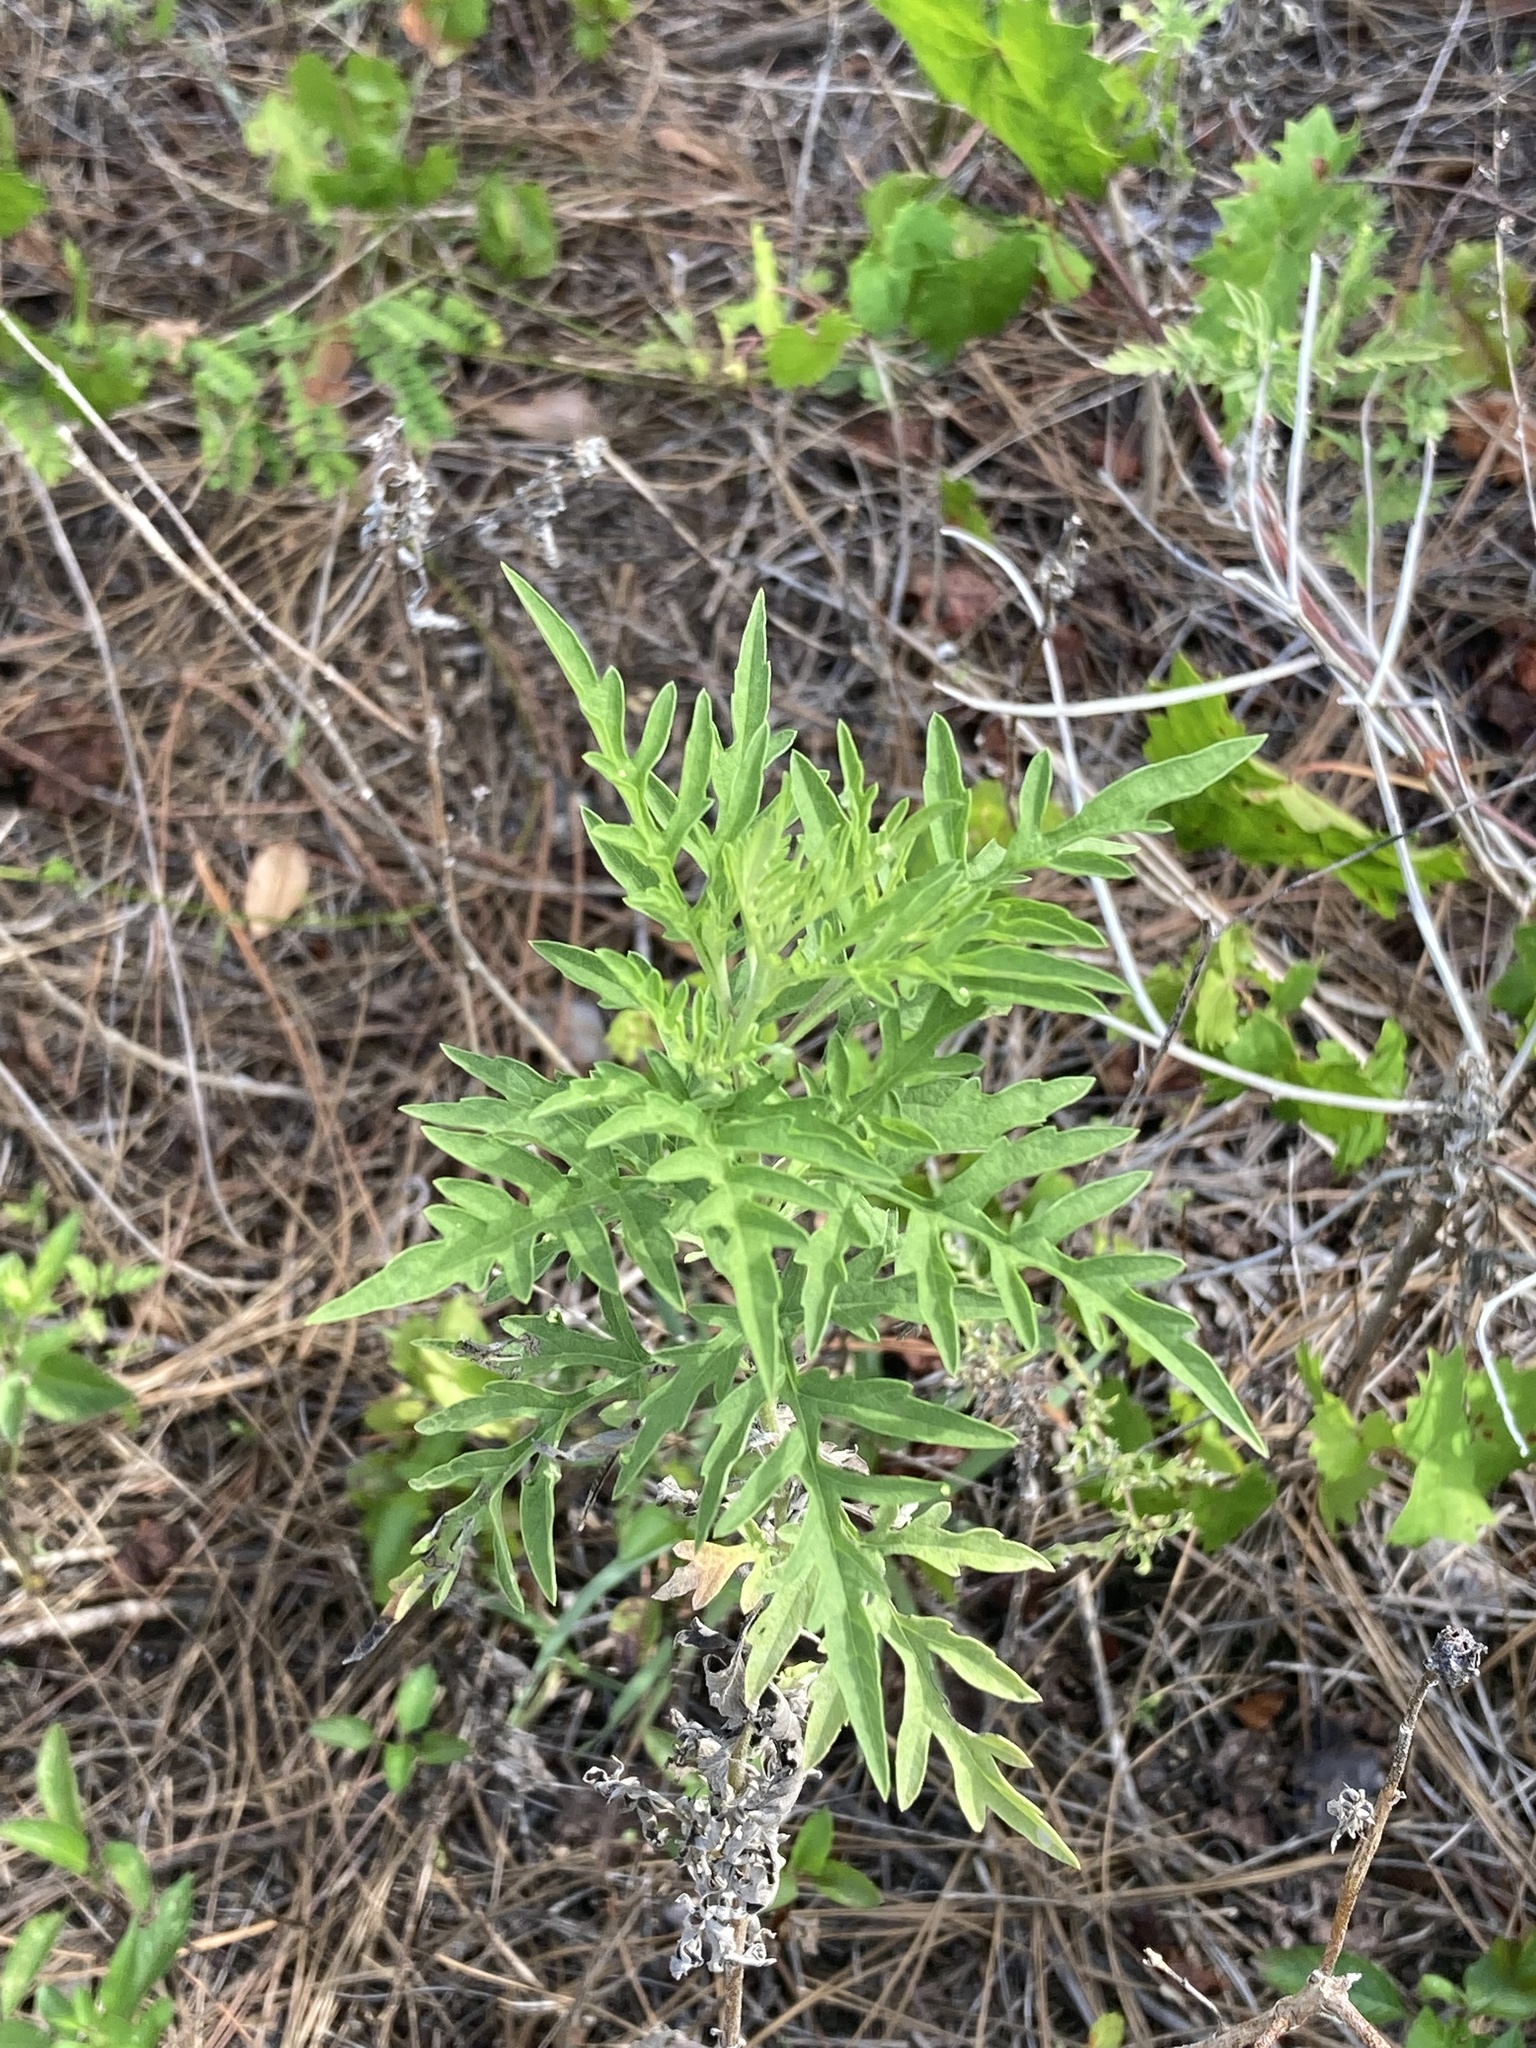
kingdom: Plantae
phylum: Tracheophyta
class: Magnoliopsida
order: Asterales
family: Asteraceae
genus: Ambrosia
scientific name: Ambrosia artemisiifolia
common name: Annual ragweed
